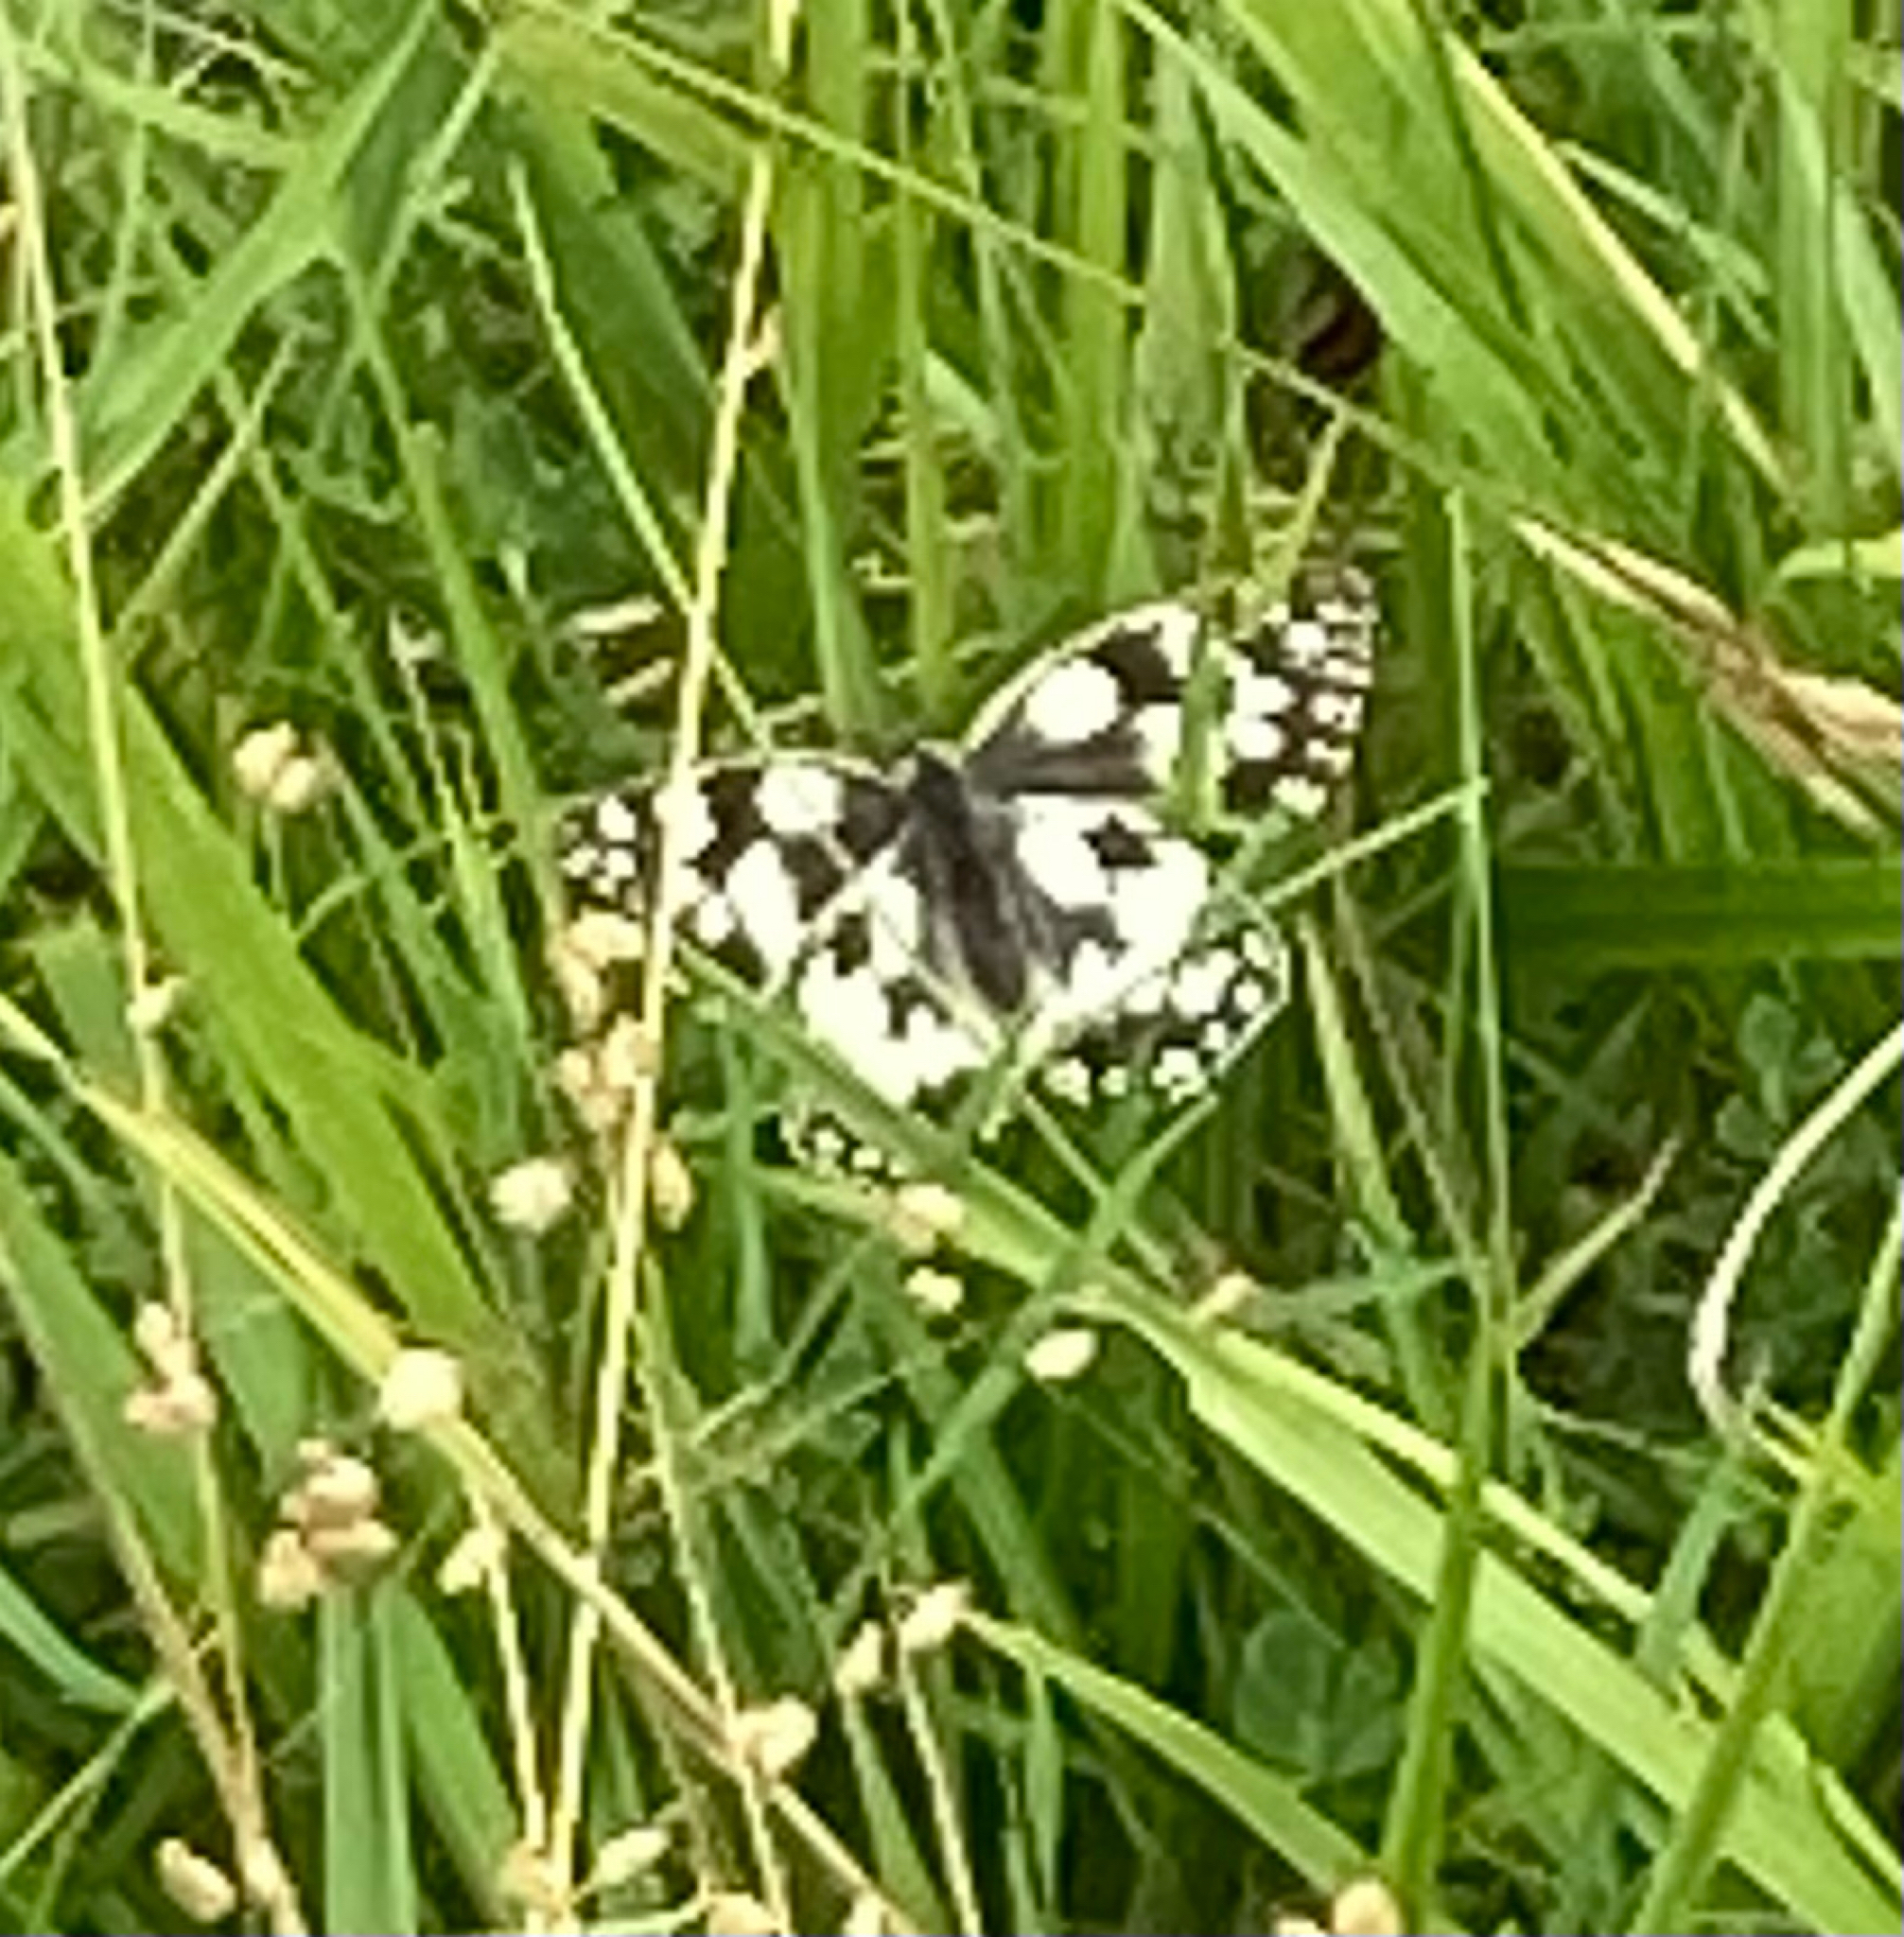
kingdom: Animalia
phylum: Arthropoda
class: Insecta
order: Lepidoptera
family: Nymphalidae
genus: Melanargia
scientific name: Melanargia galathea
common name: Marbled white
